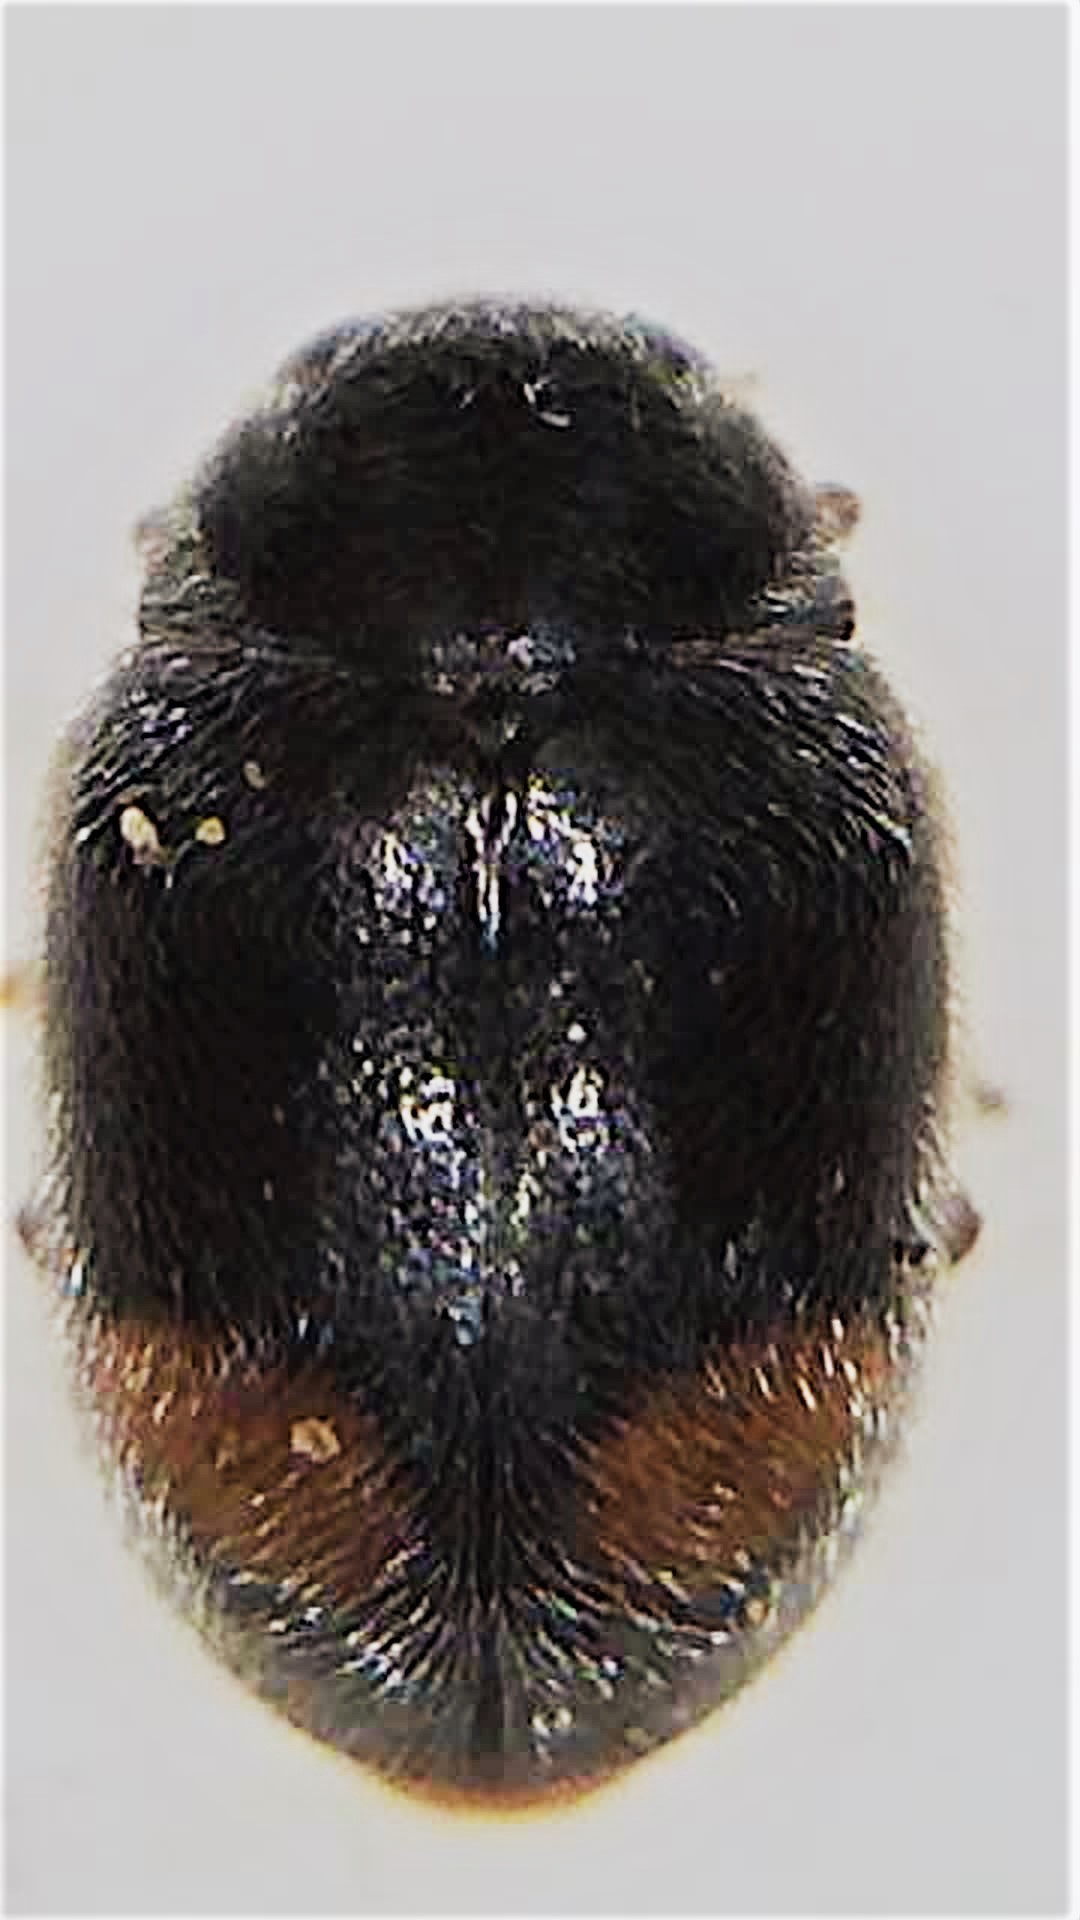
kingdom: Animalia
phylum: Arthropoda
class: Insecta
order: Coleoptera
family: Coccinellidae
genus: Nephus
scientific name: Nephus binaevatus
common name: Ladybird beetle
